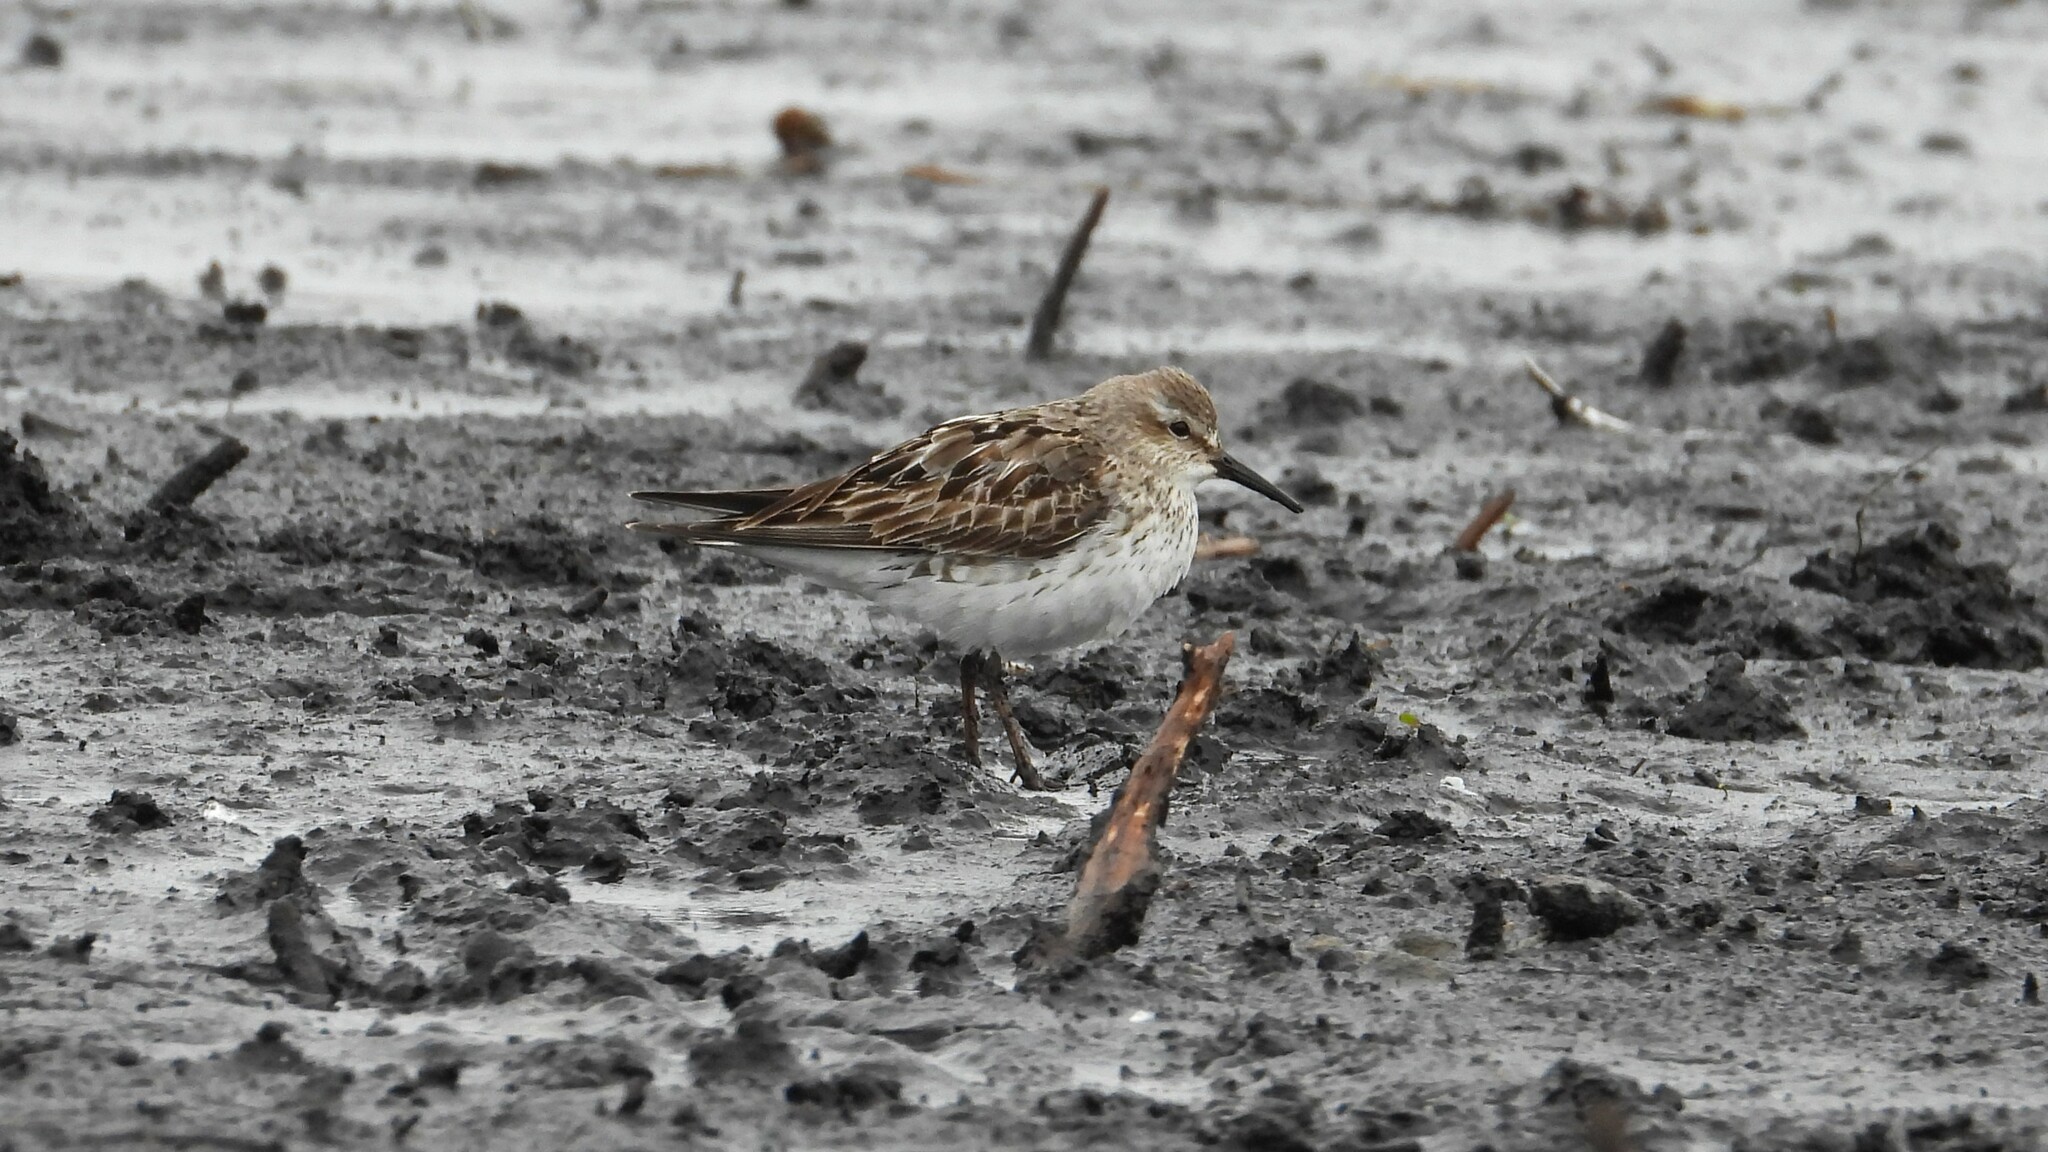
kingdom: Animalia
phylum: Chordata
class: Aves
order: Charadriiformes
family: Scolopacidae
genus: Calidris
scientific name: Calidris fuscicollis
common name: White-rumped sandpiper
